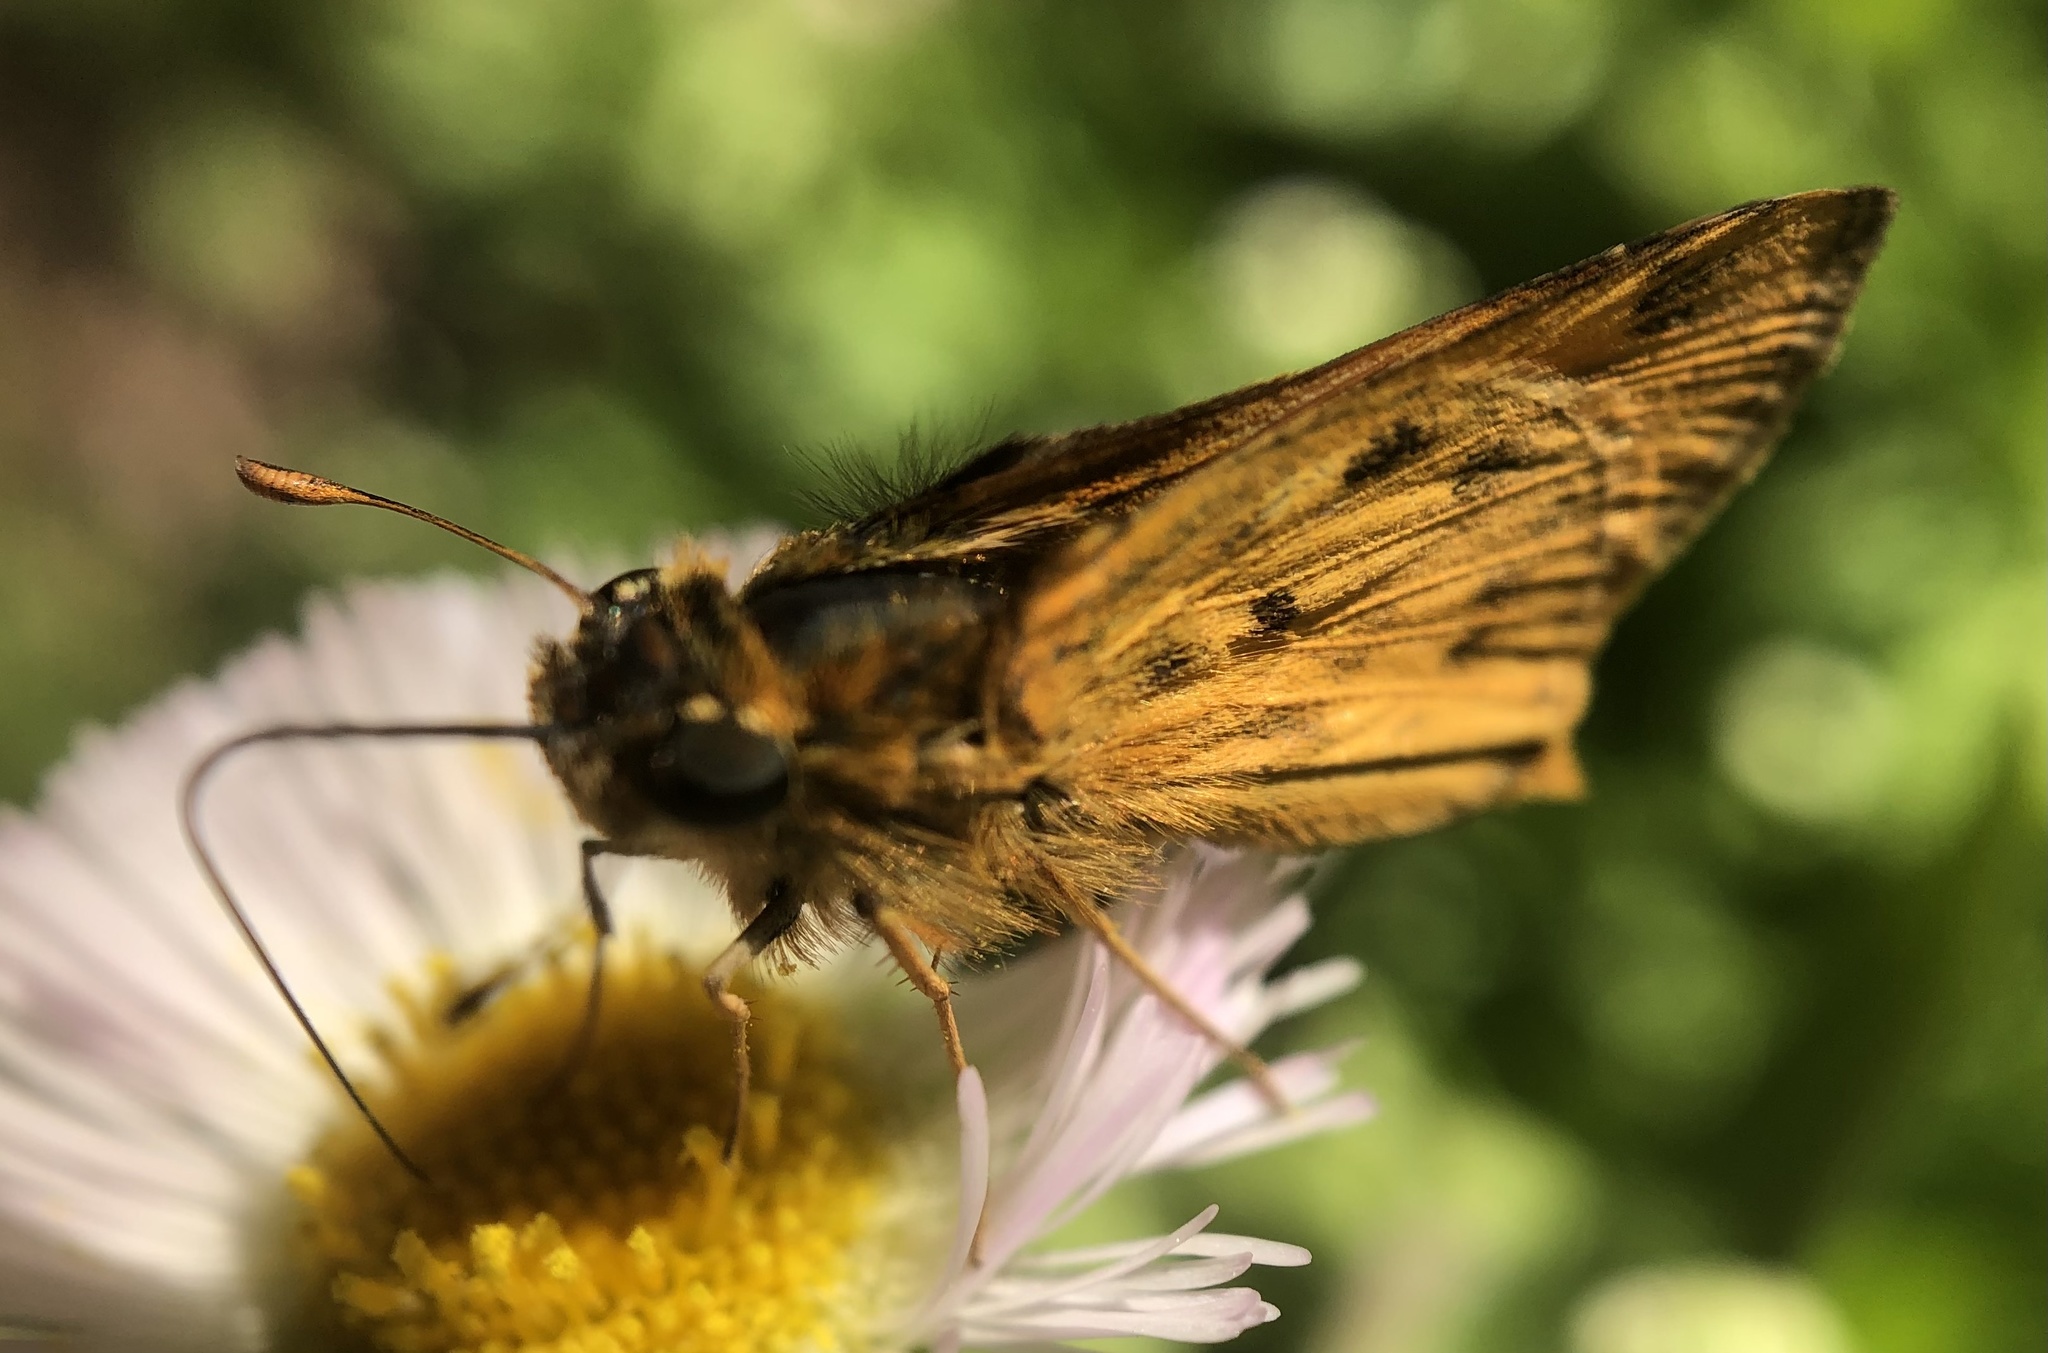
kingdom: Animalia
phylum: Arthropoda
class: Insecta
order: Lepidoptera
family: Hesperiidae
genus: Hylephila
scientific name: Hylephila phyleus
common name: Fiery skipper
